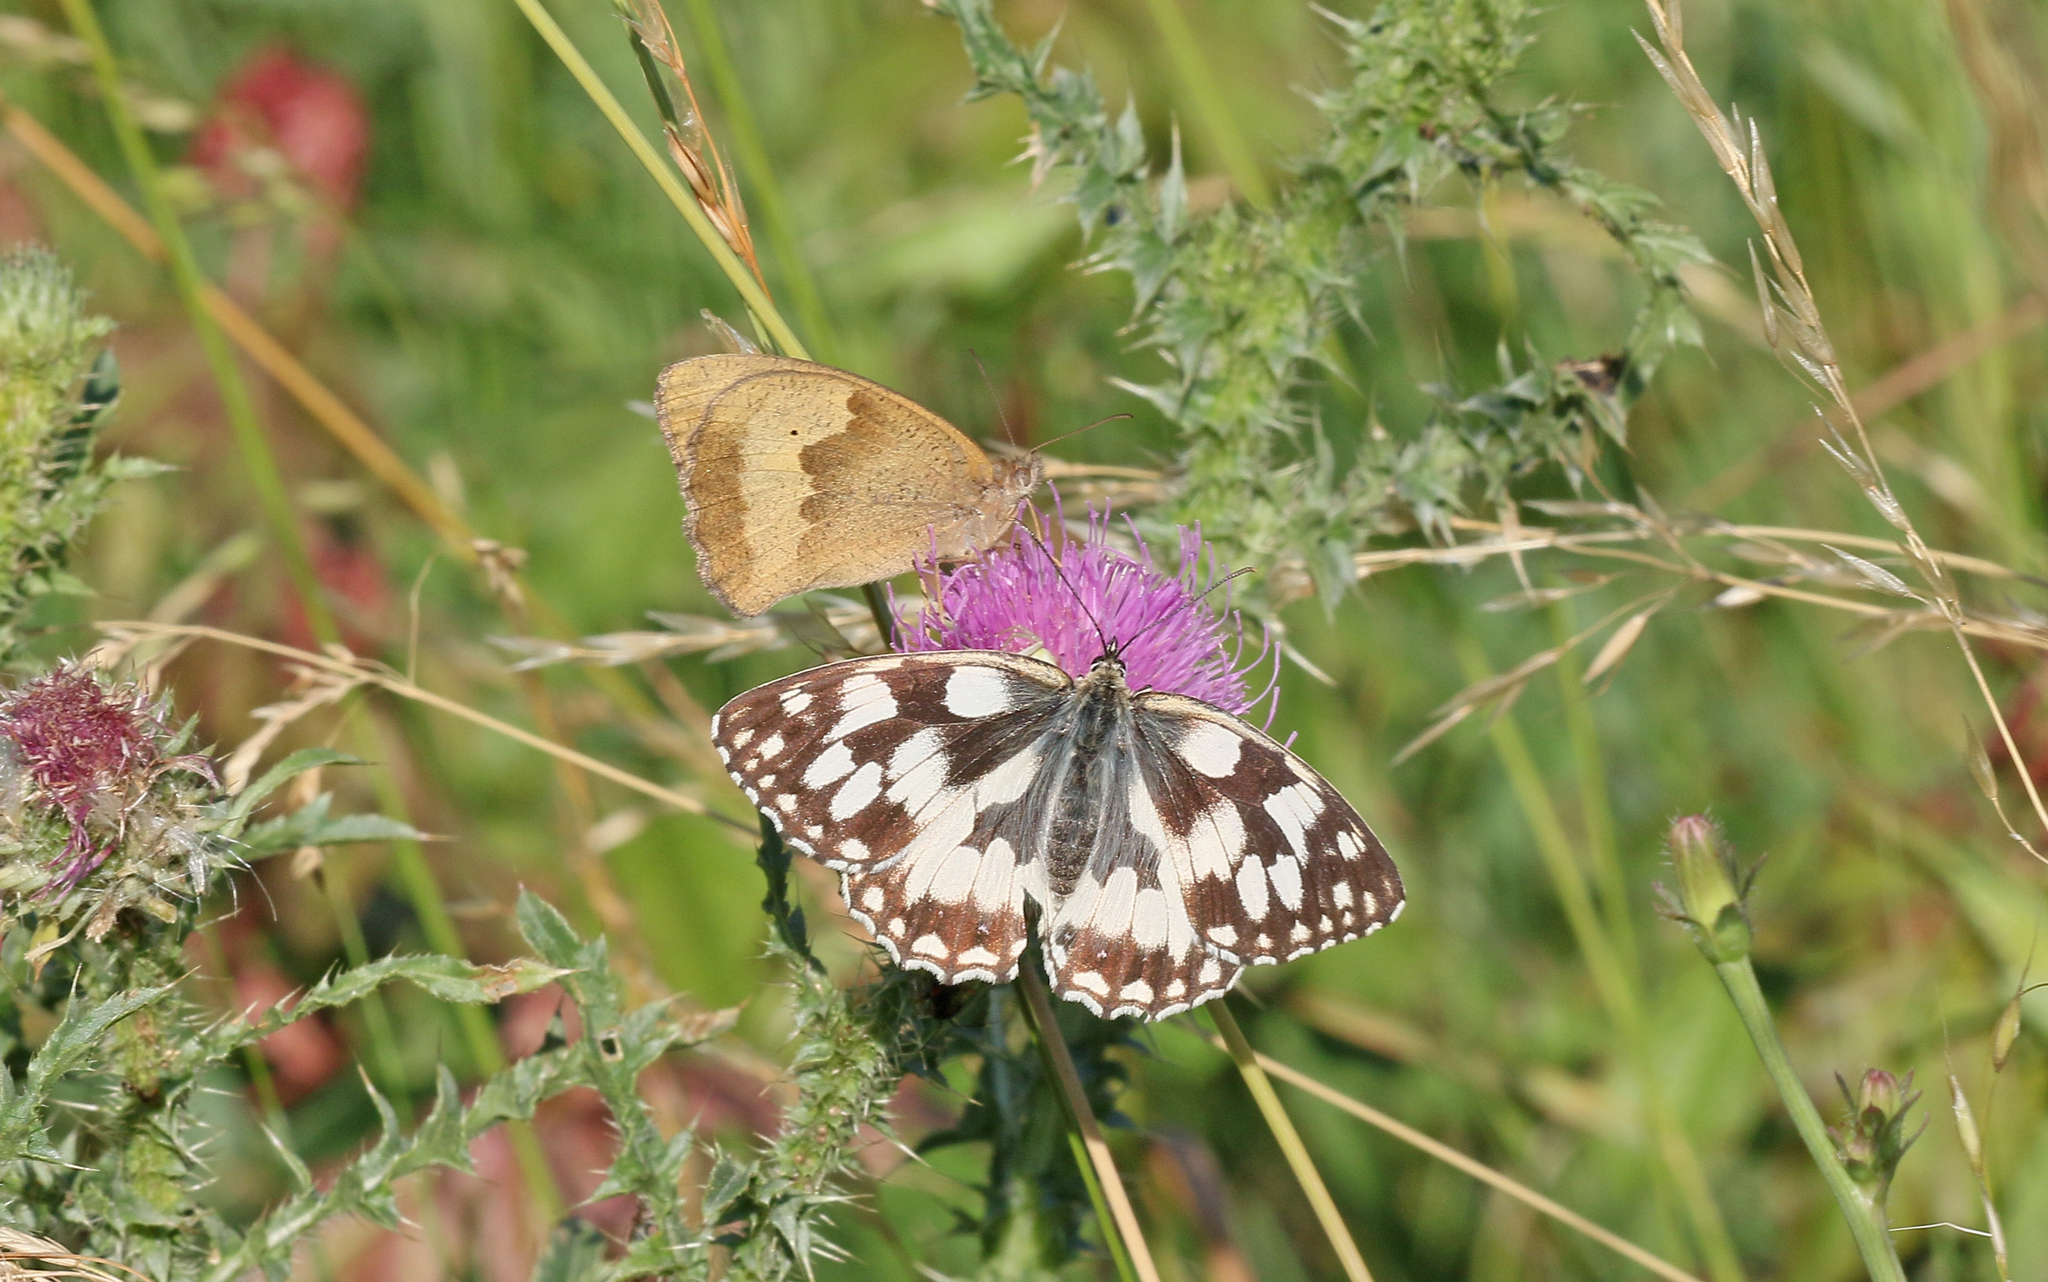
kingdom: Animalia
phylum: Arthropoda
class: Insecta
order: Lepidoptera
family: Nymphalidae
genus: Melanargia
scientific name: Melanargia galathea
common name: Marbled white
